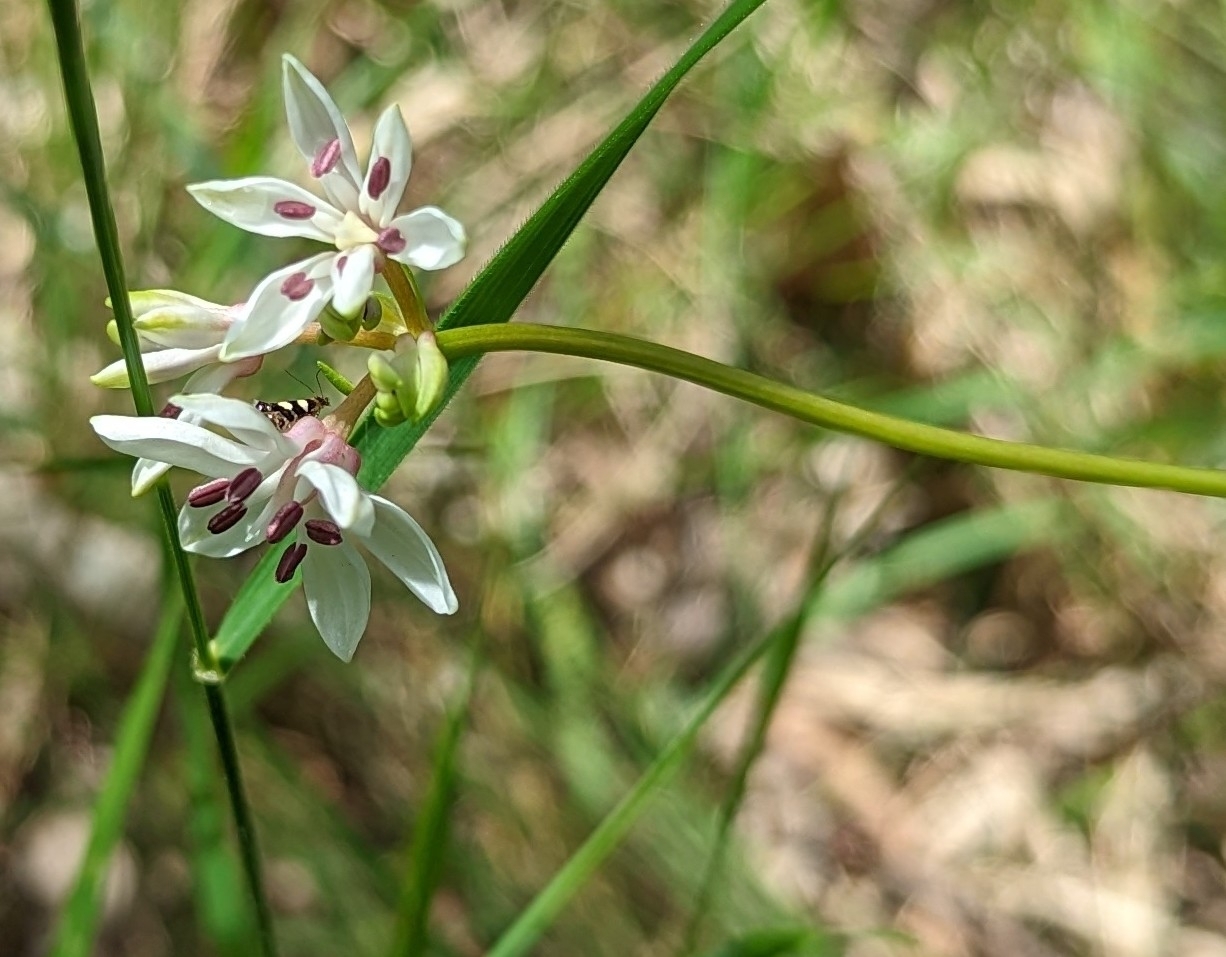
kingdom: Plantae
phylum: Tracheophyta
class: Liliopsida
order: Liliales
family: Colchicaceae
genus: Burchardia
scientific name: Burchardia umbellata
